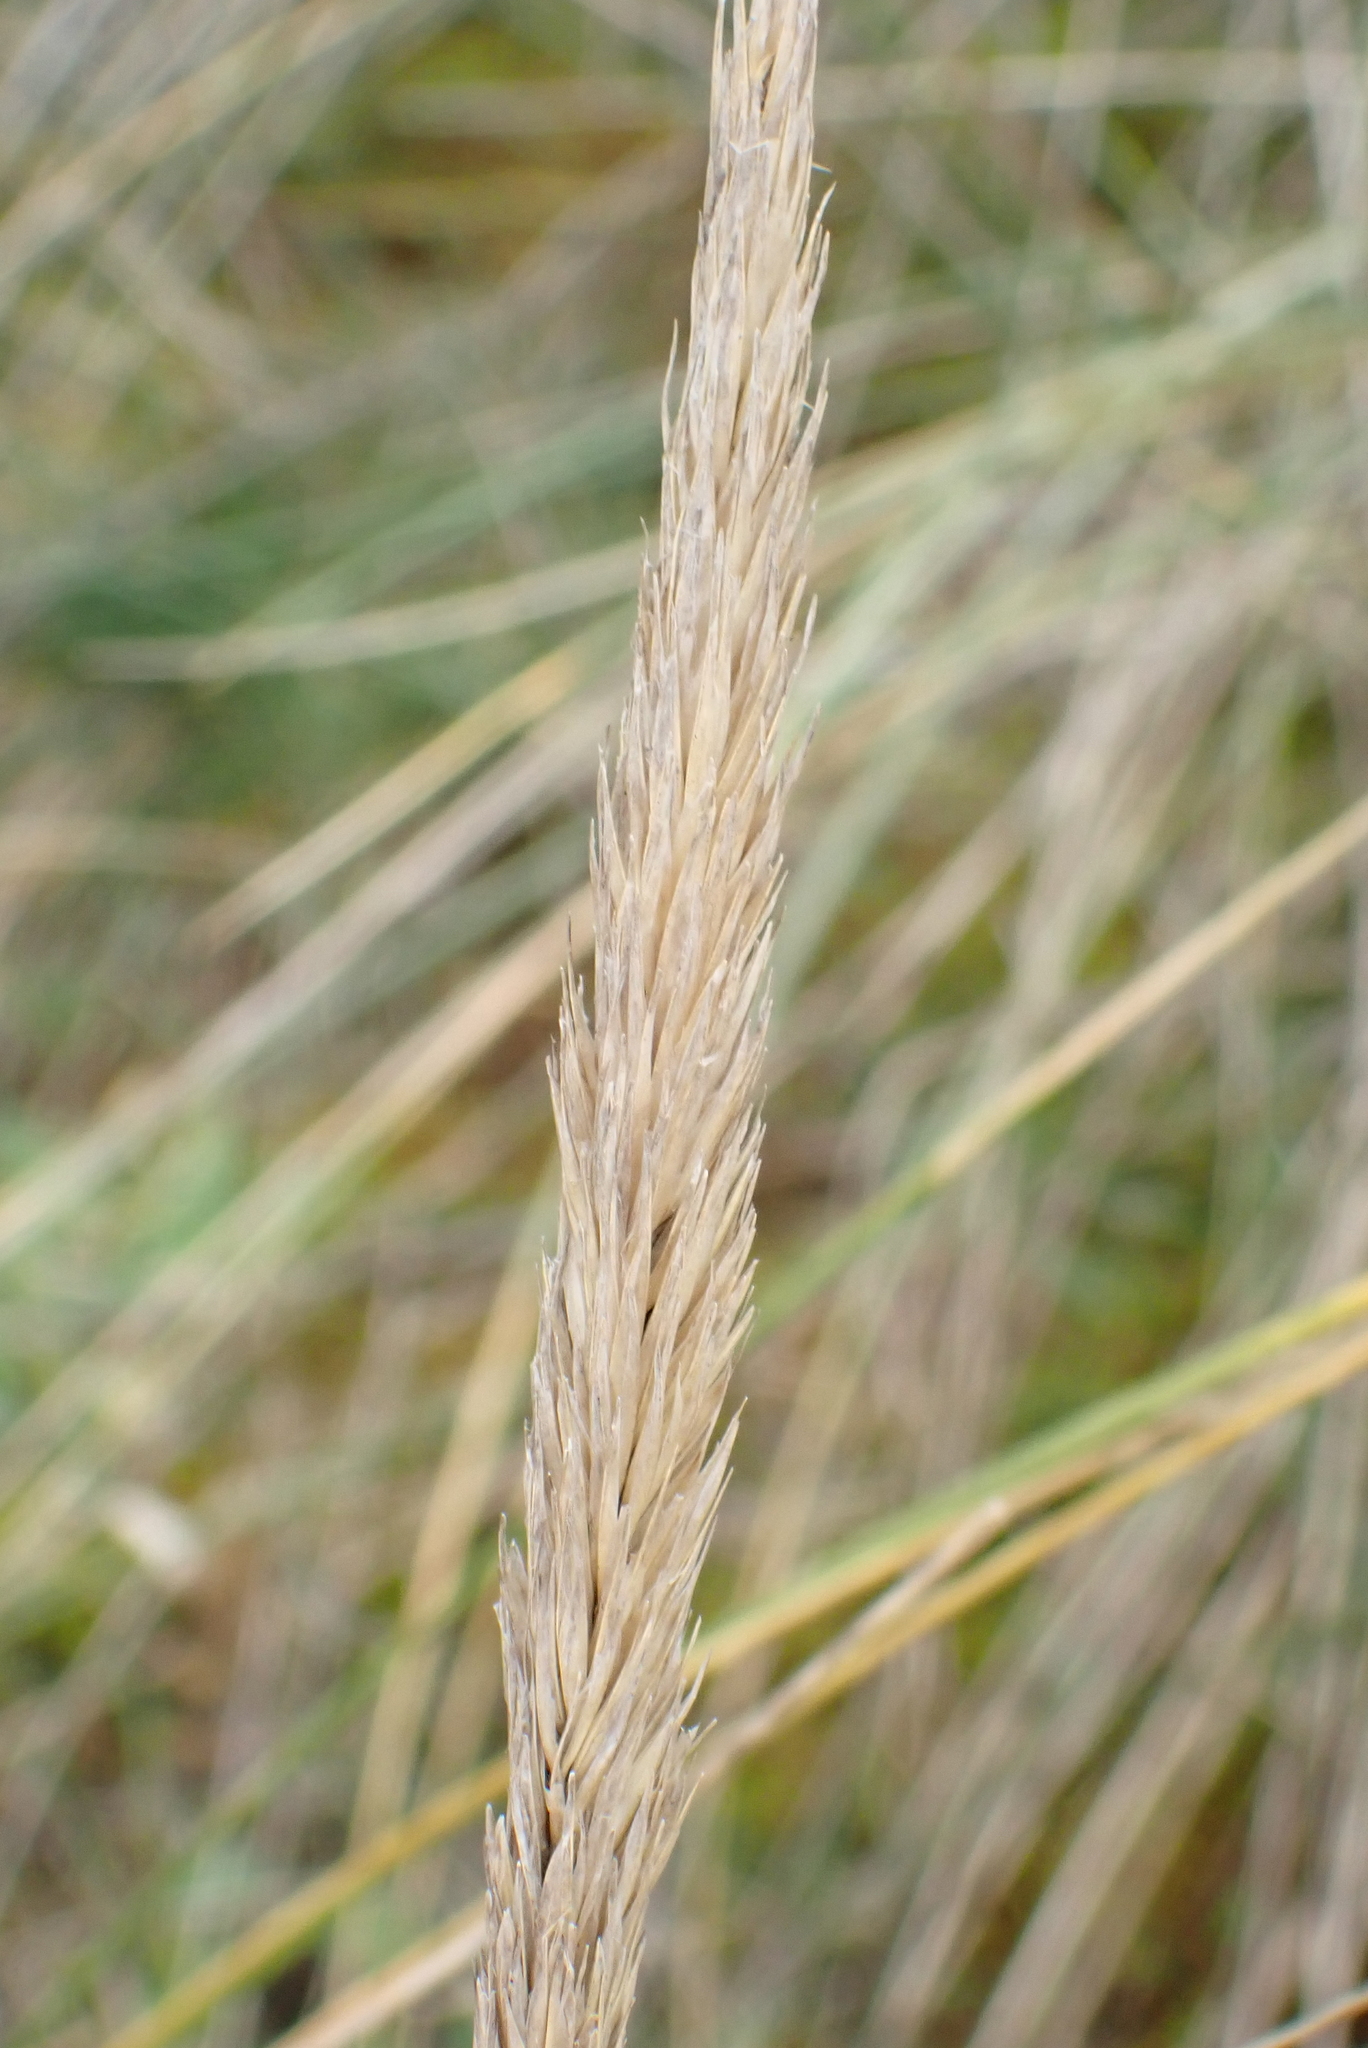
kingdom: Plantae
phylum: Tracheophyta
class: Liliopsida
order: Poales
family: Poaceae
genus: Calamagrostis
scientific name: Calamagrostis arenaria
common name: European beachgrass
